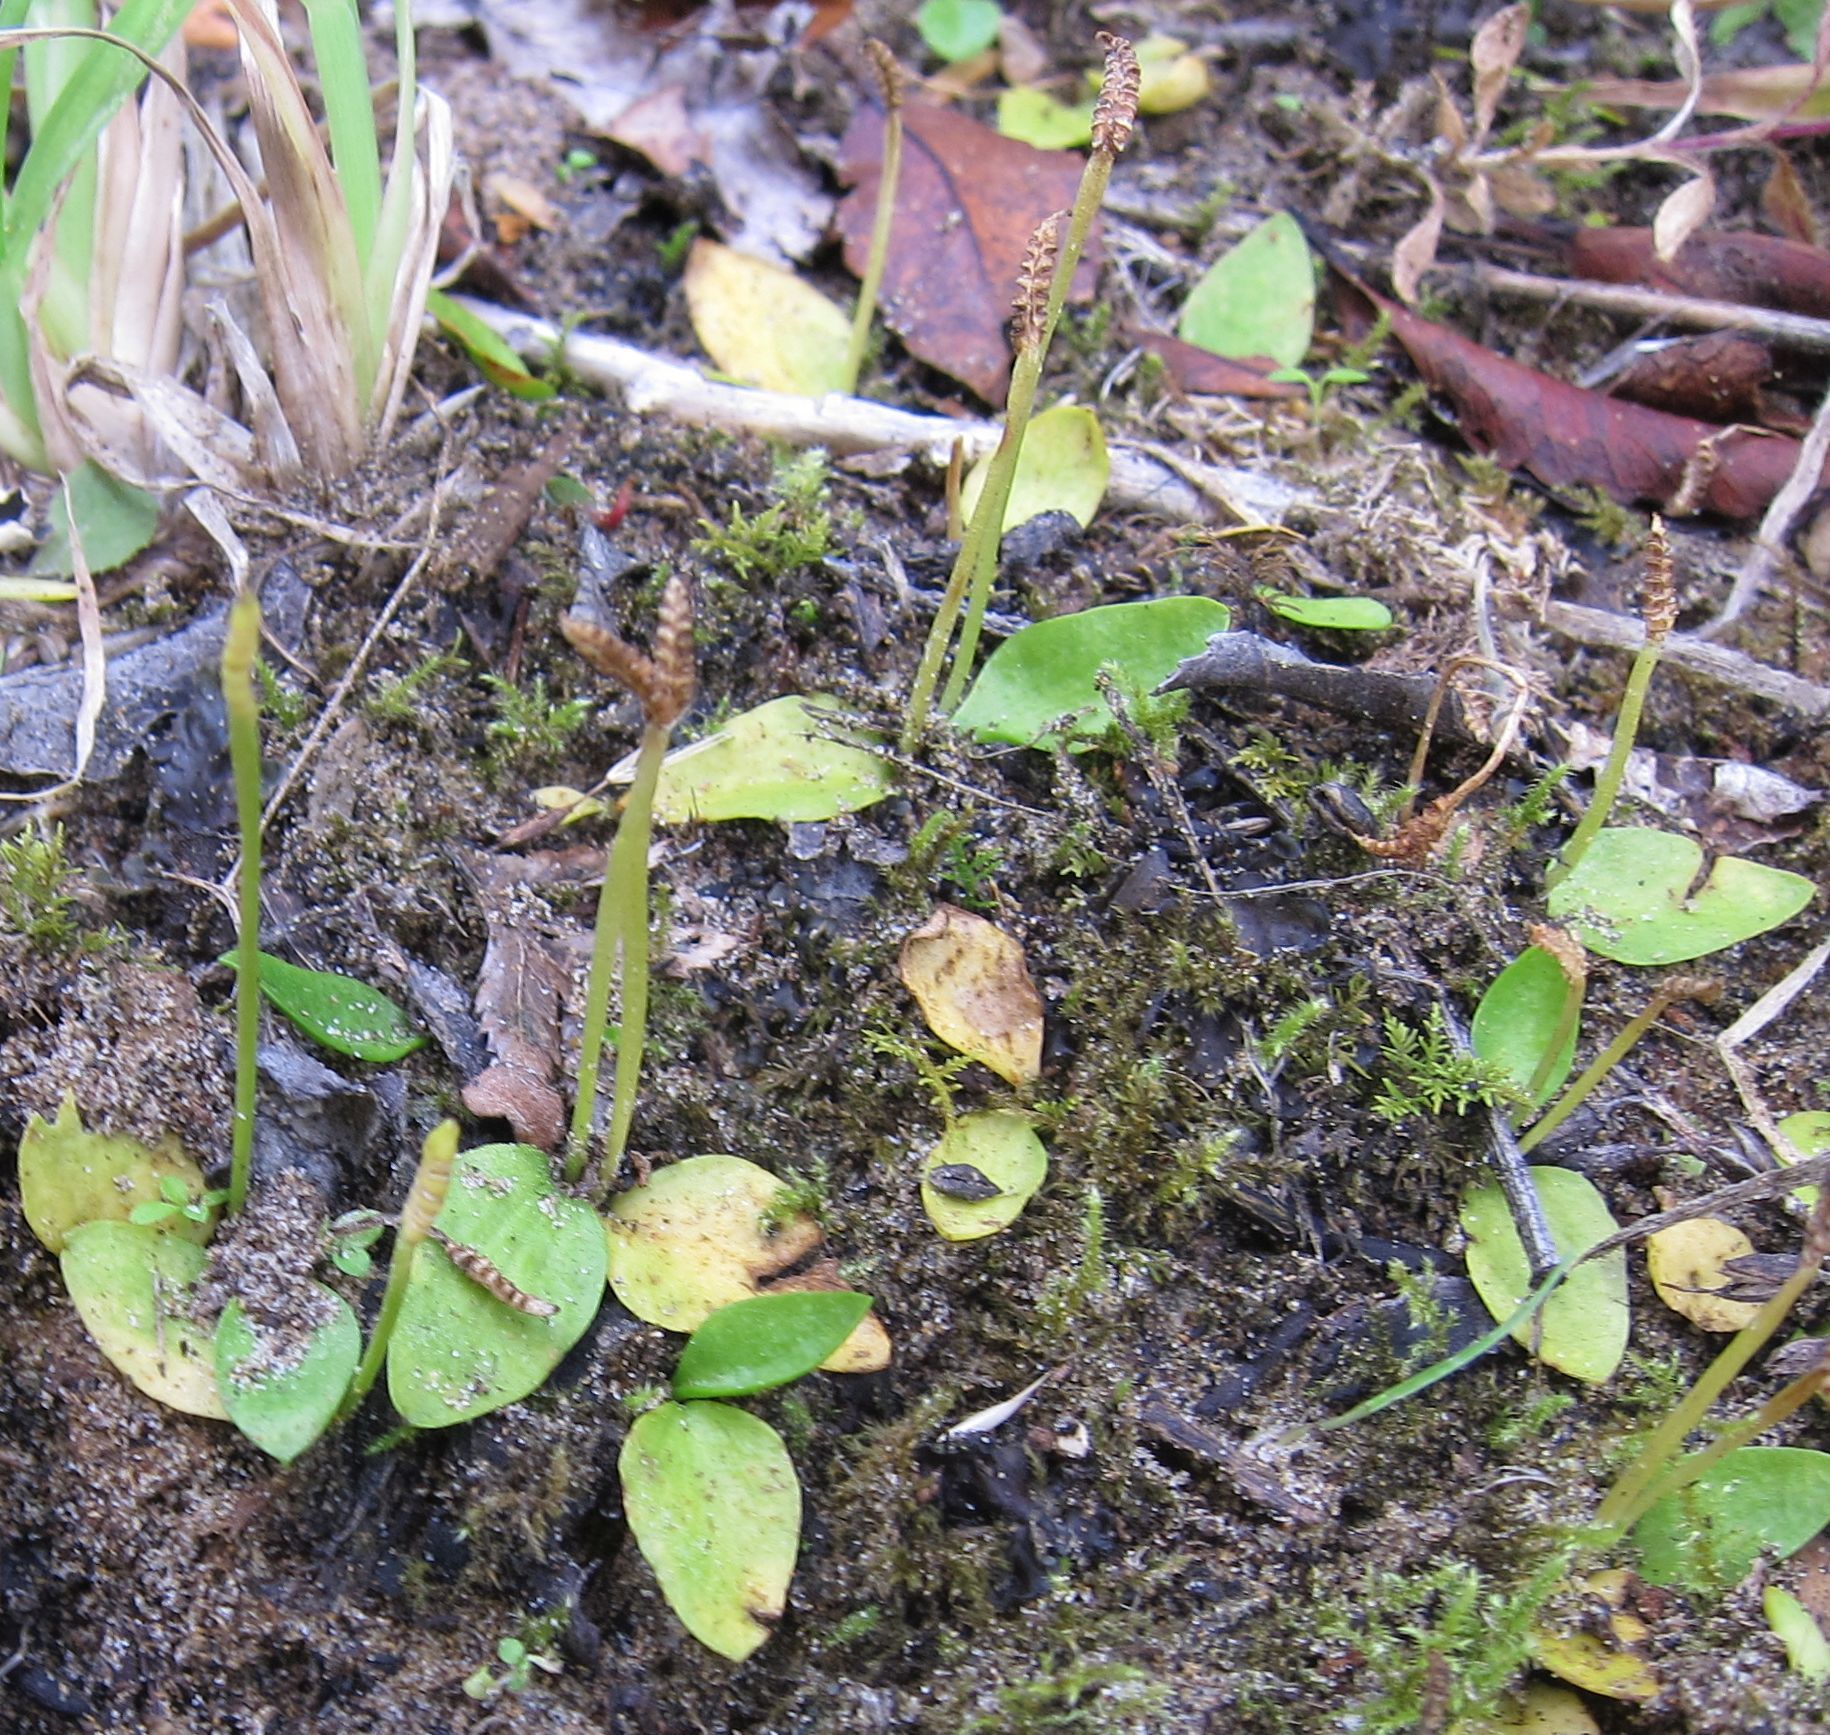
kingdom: Plantae
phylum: Tracheophyta
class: Polypodiopsida
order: Ophioglossales
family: Ophioglossaceae
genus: Ophioglossum
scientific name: Ophioglossum coriaceum
